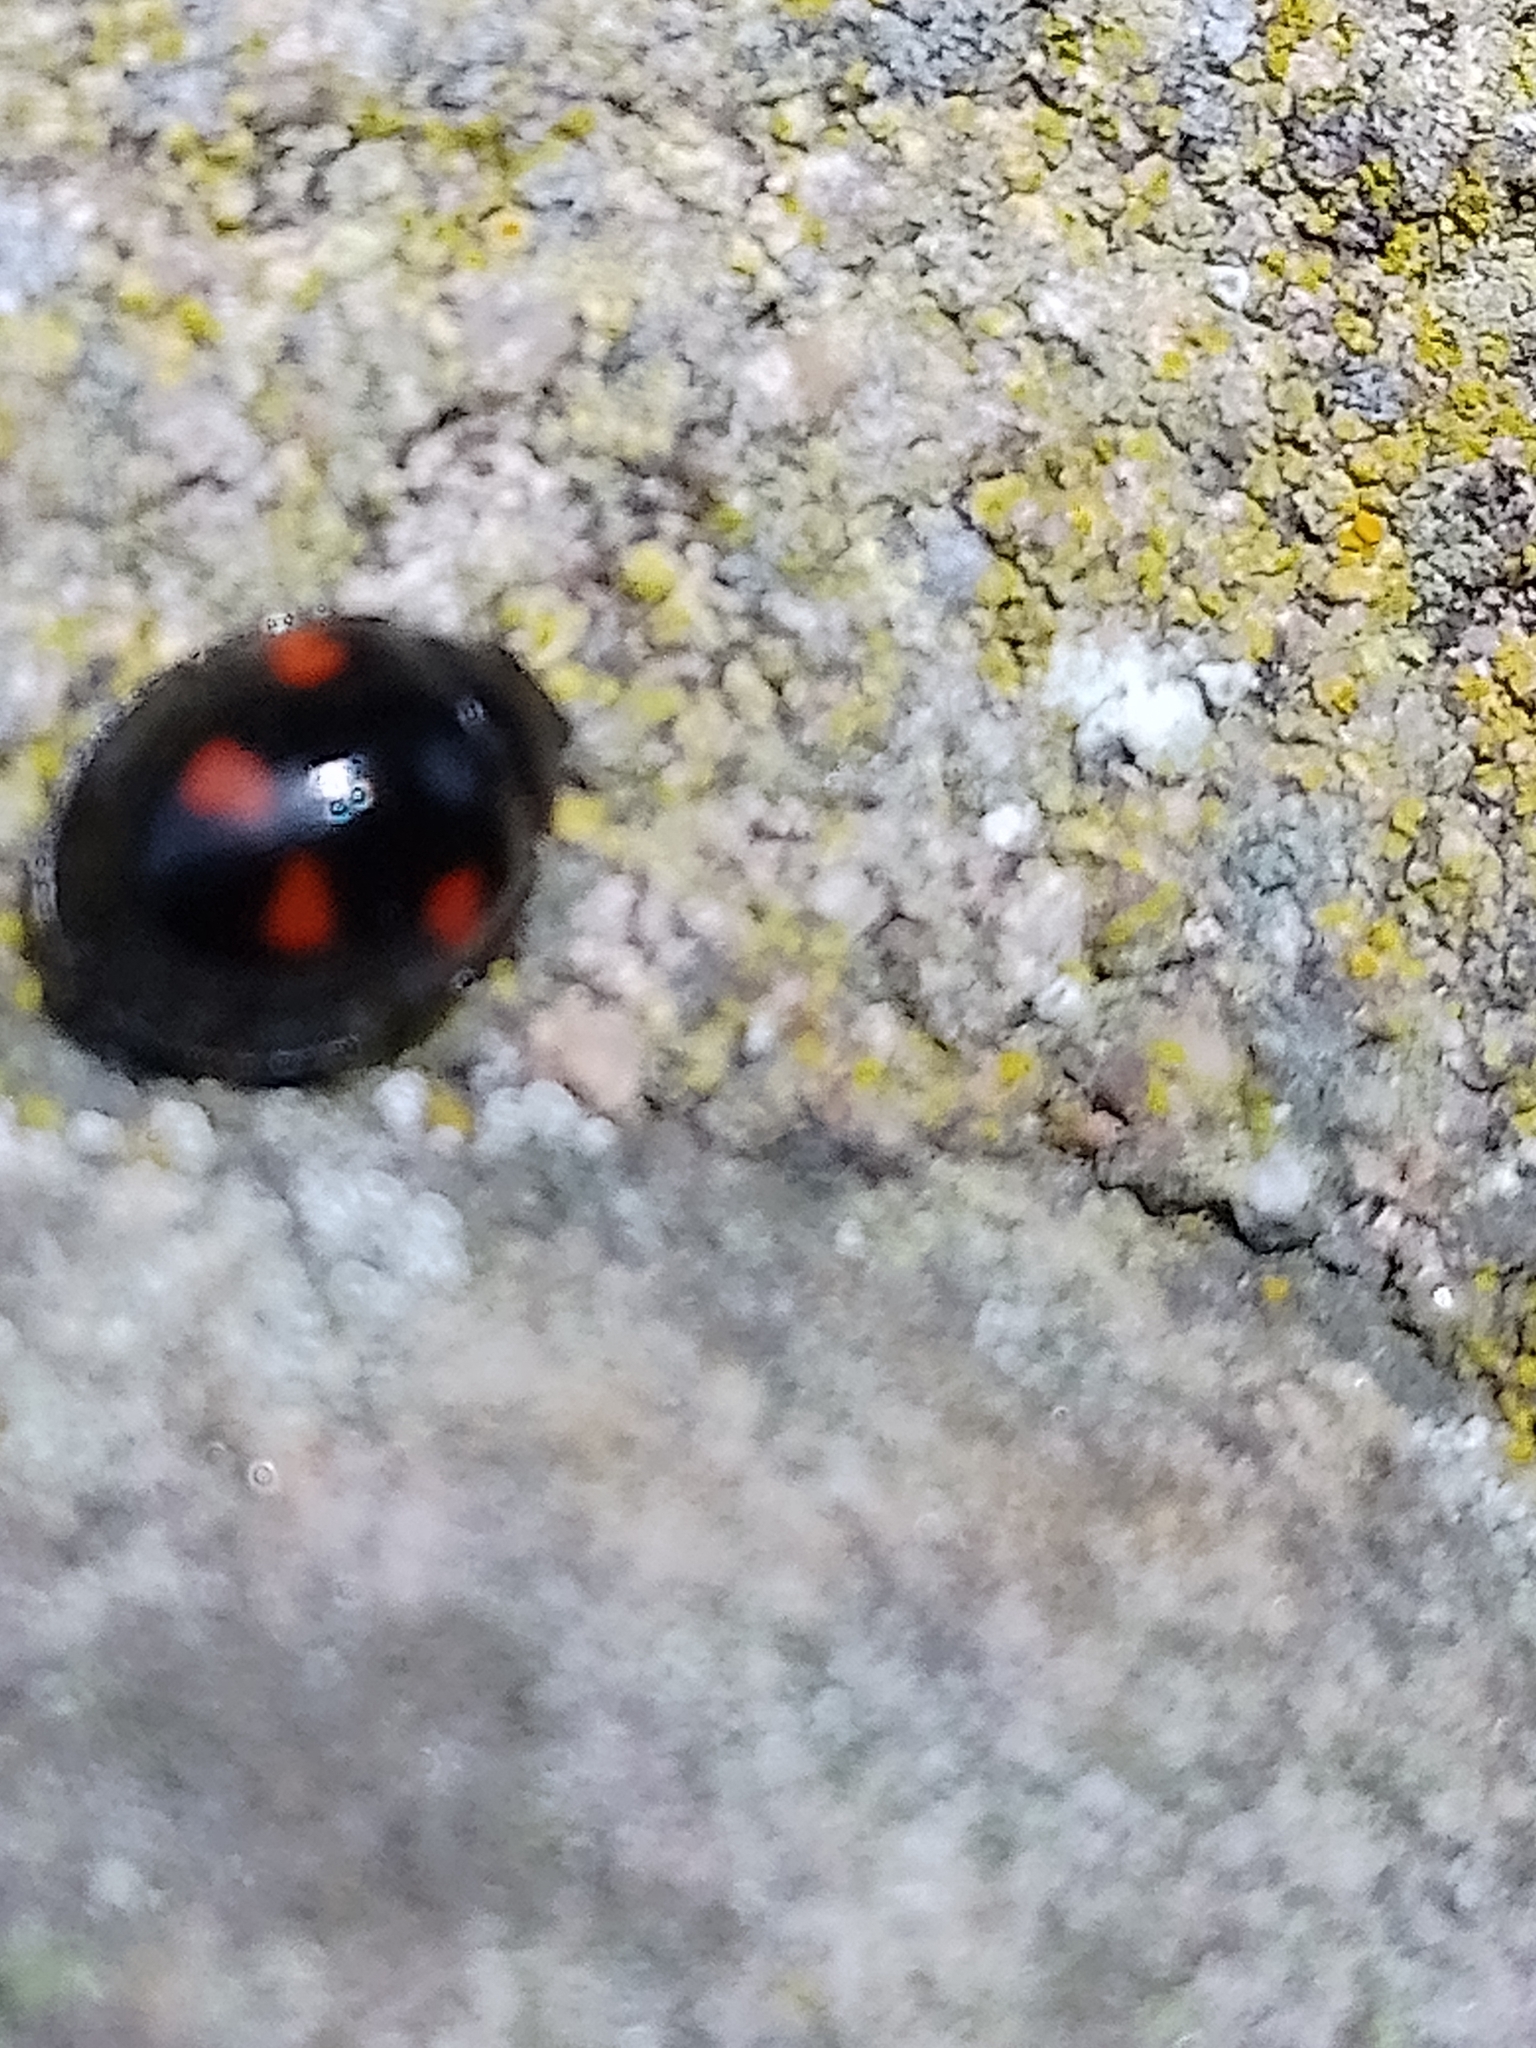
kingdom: Animalia
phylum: Arthropoda
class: Insecta
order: Coleoptera
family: Coccinellidae
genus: Brumus
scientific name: Brumus quadripustulatus
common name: Ladybird beetle
